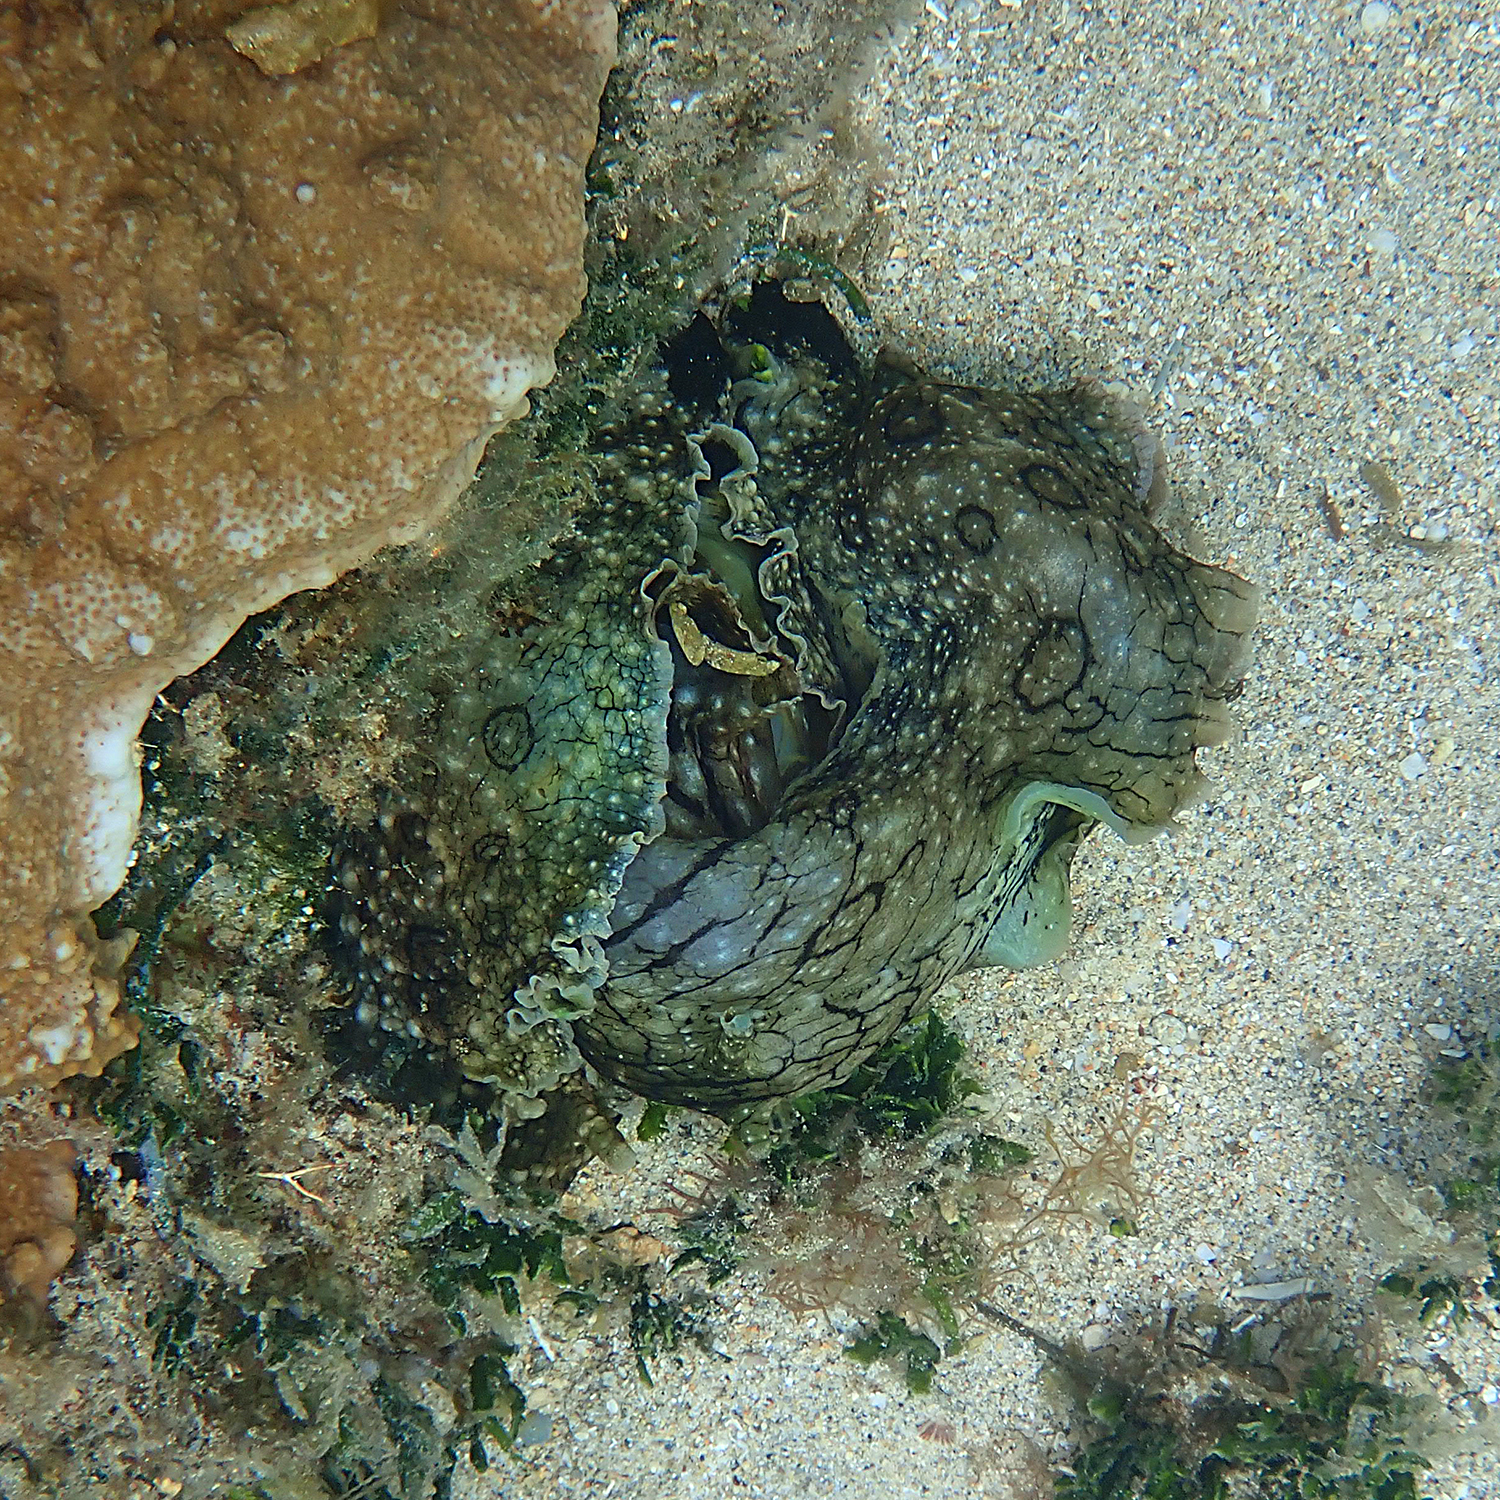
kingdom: Animalia
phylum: Mollusca
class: Gastropoda
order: Aplysiida
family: Aplysiidae
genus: Aplysia
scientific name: Aplysia argus
